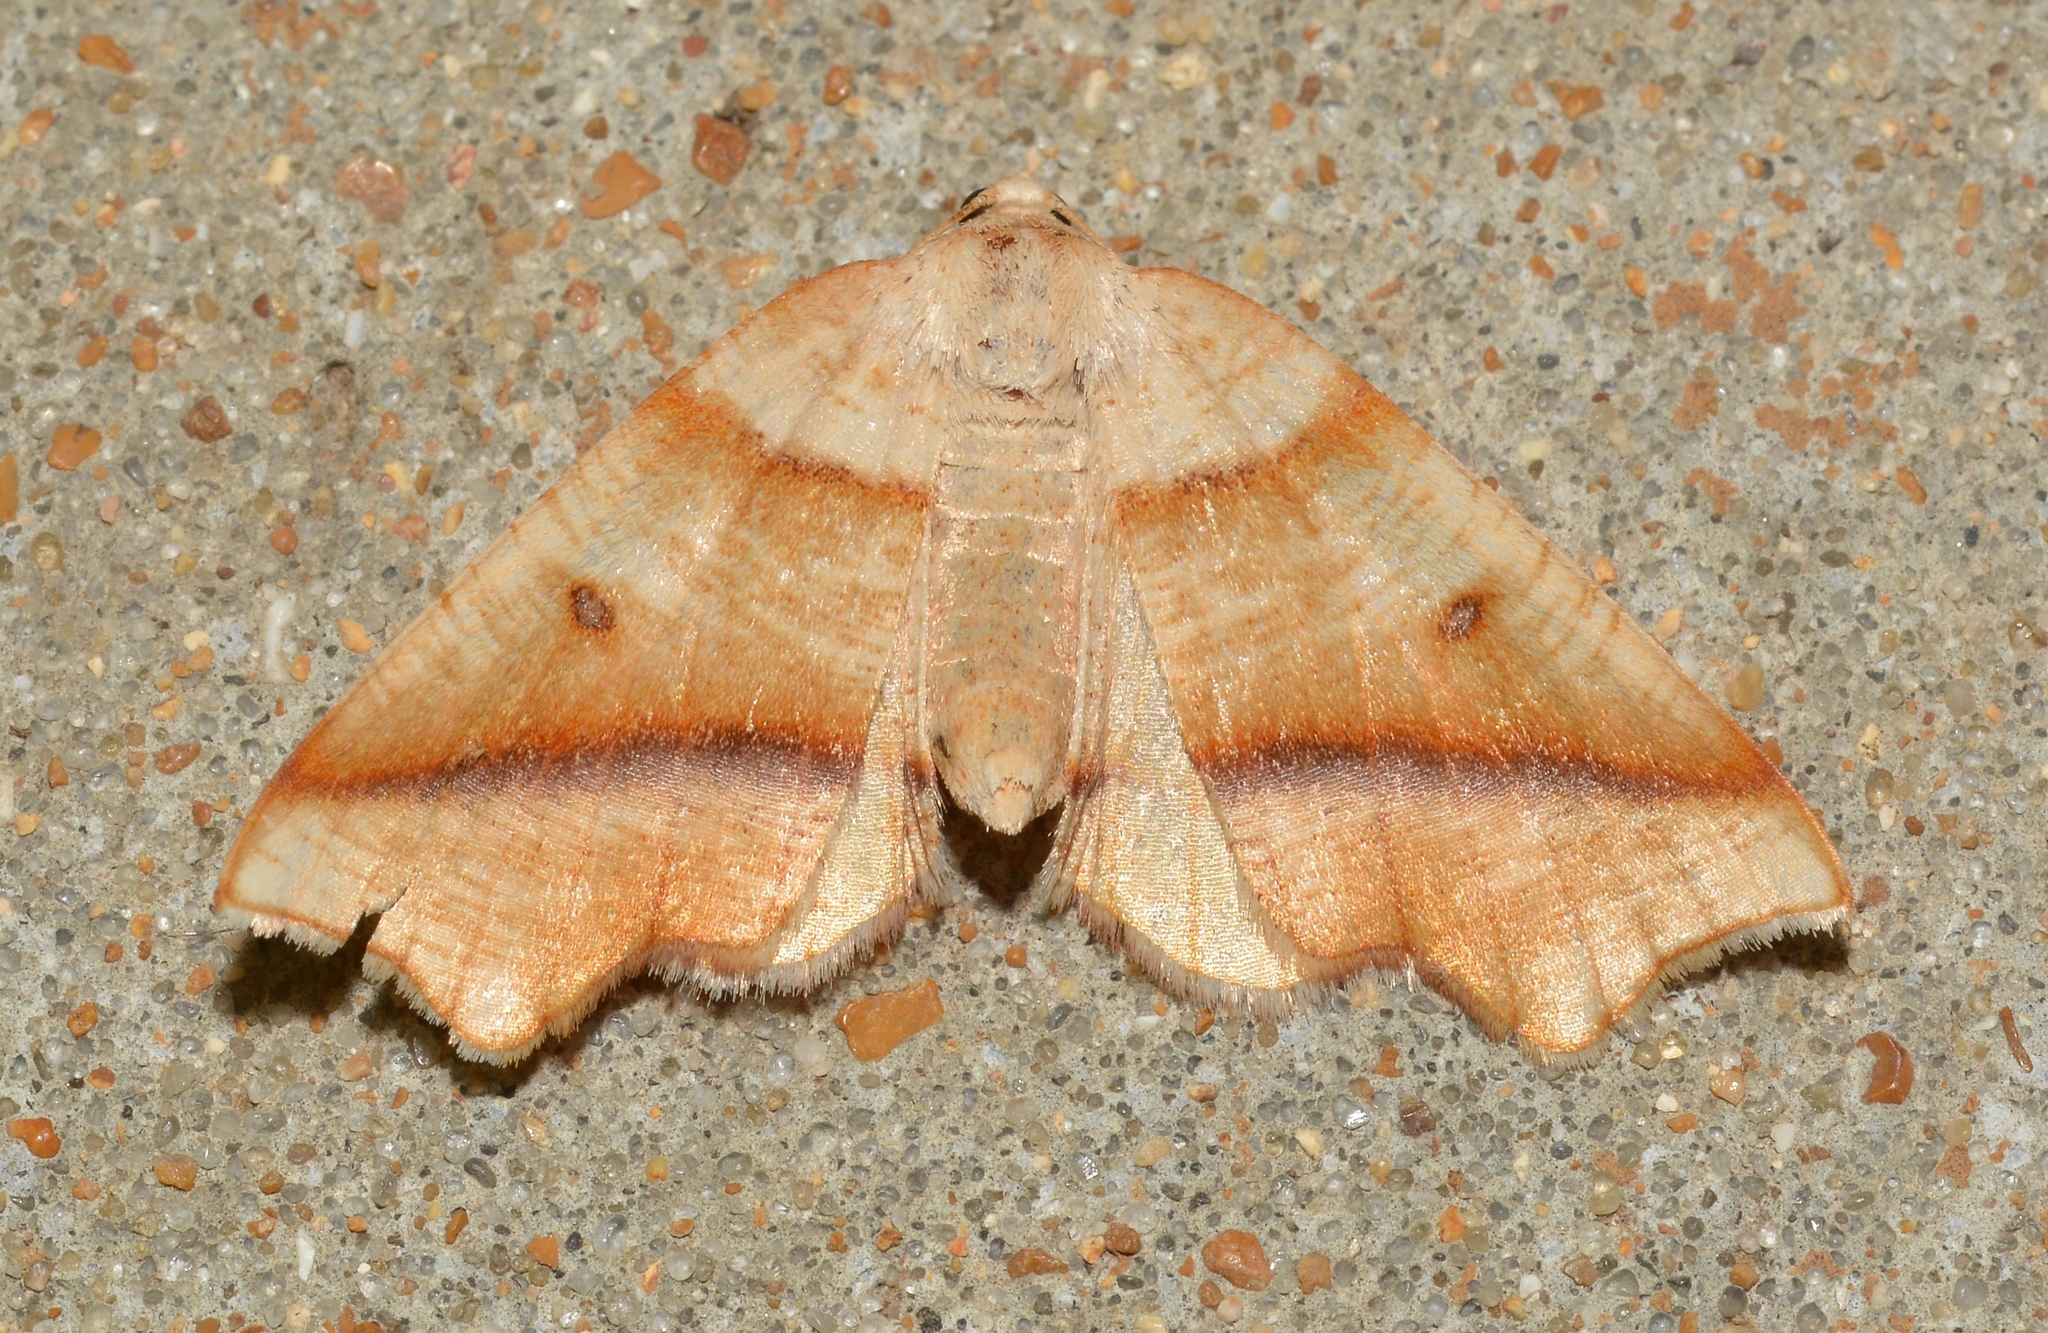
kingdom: Animalia
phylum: Arthropoda
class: Insecta
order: Lepidoptera
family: Geometridae
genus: Plagodis
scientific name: Plagodis alcoolaria
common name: Hollow-spotted plagodis
